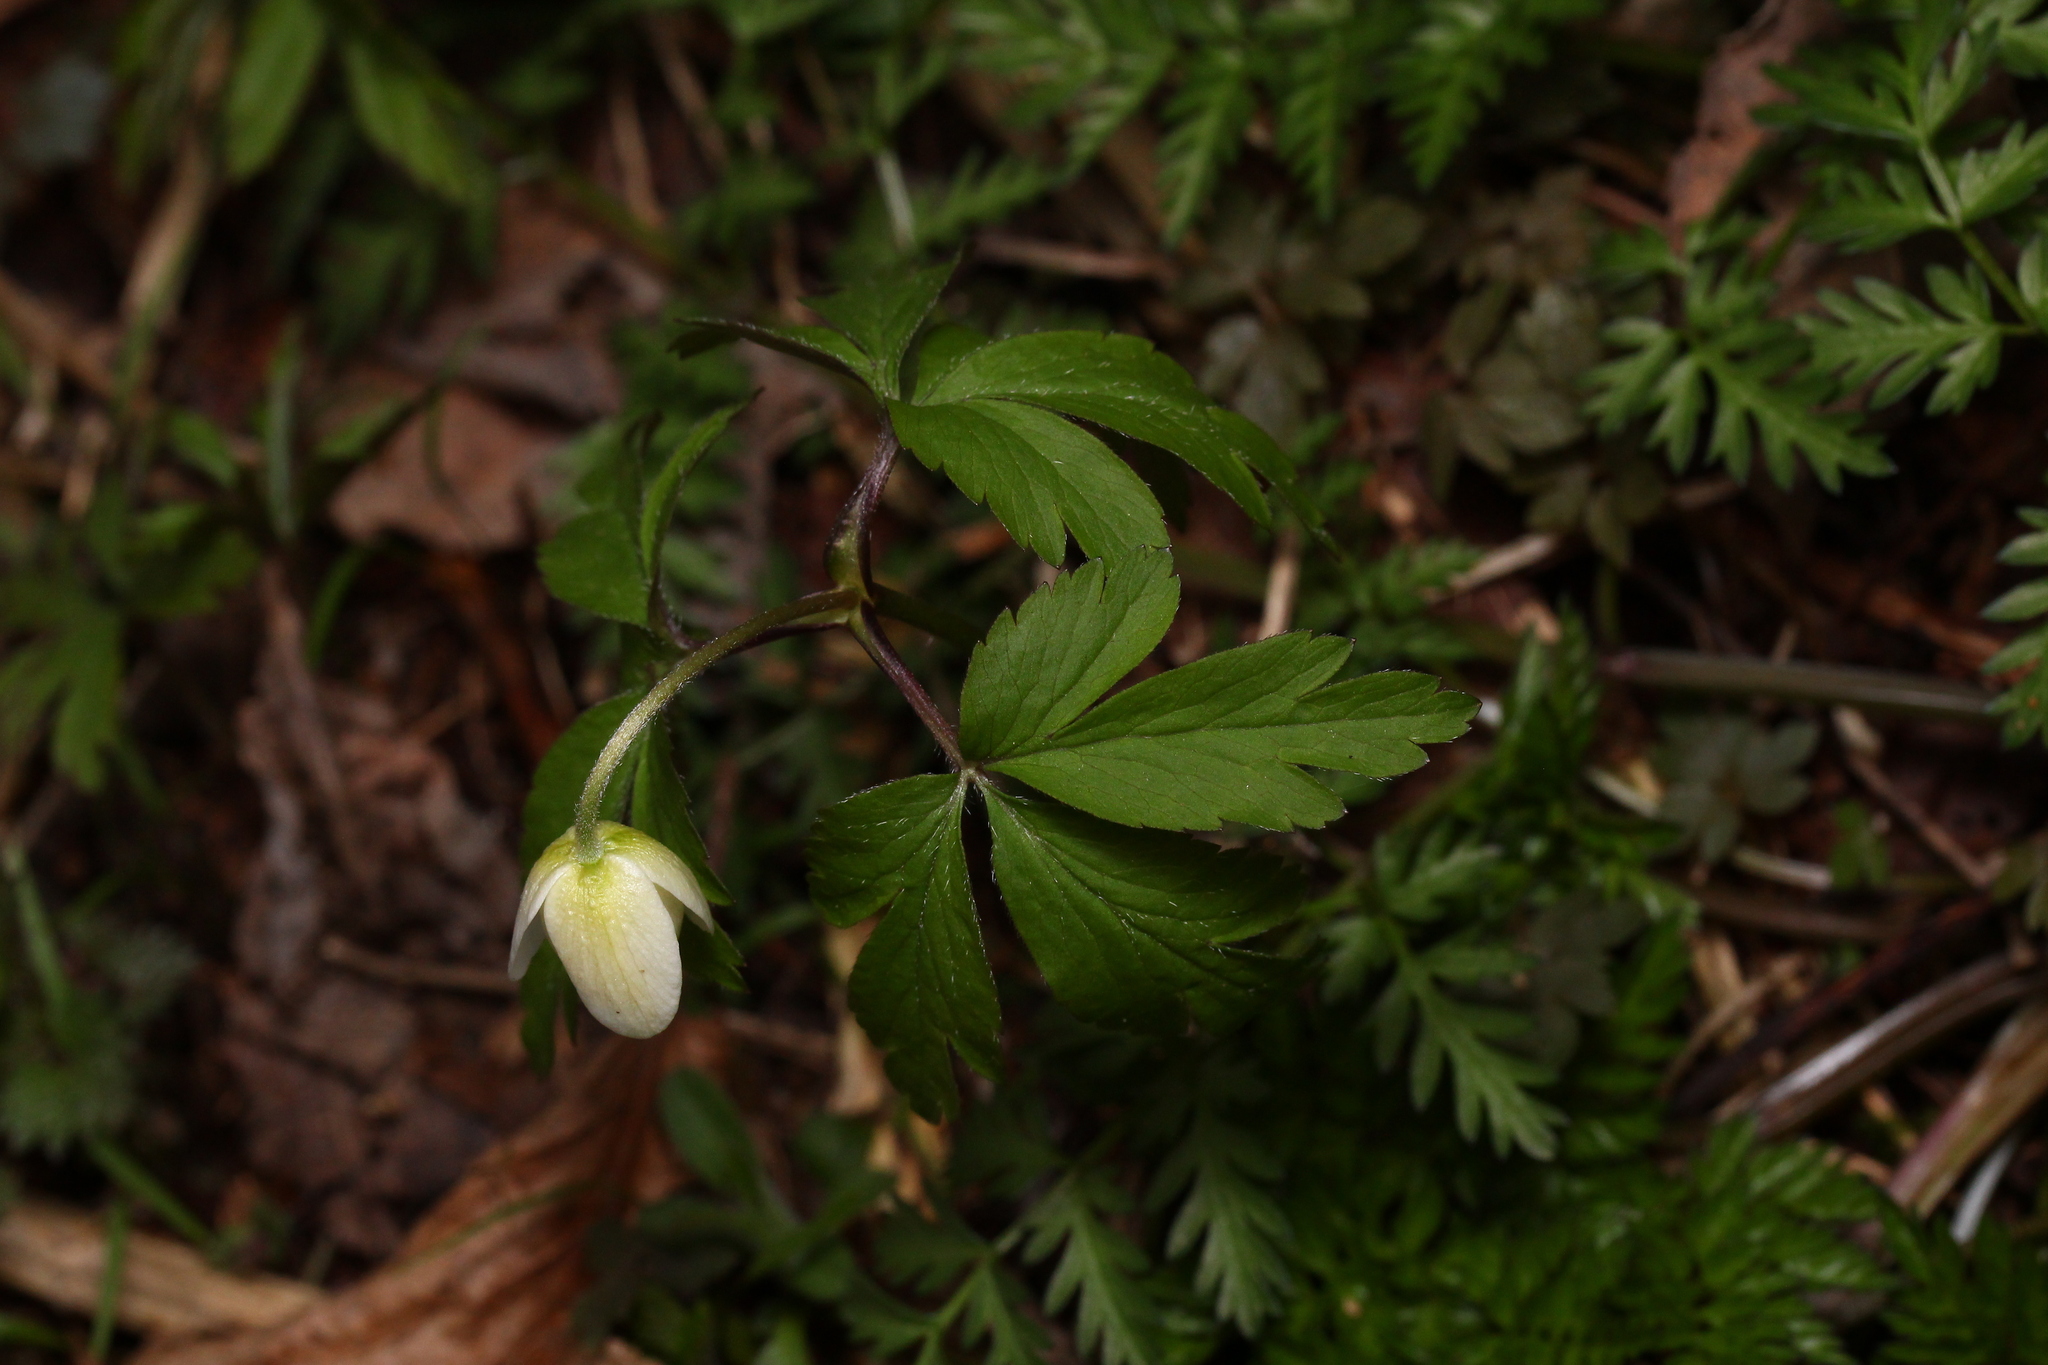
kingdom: Plantae
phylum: Tracheophyta
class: Magnoliopsida
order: Ranunculales
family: Ranunculaceae
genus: Anemone
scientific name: Anemone nemorosa
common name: Wood anemone
